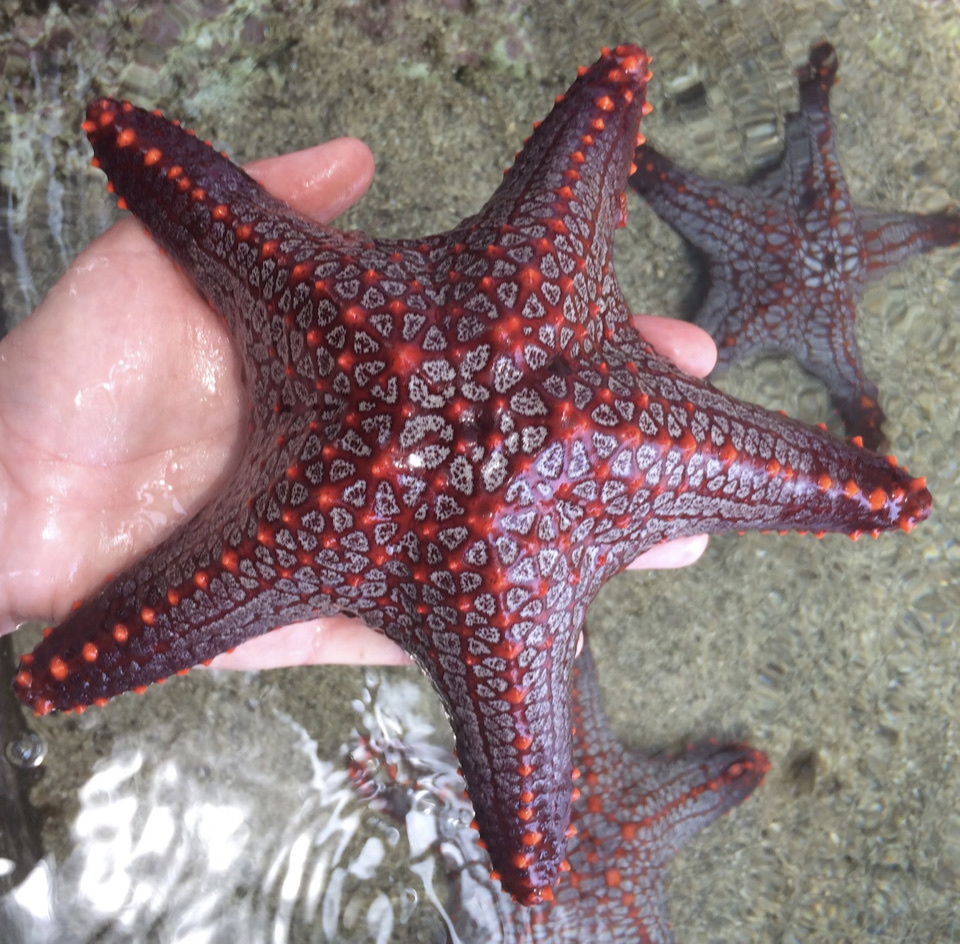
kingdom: Animalia
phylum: Echinodermata
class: Asteroidea
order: Valvatida
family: Oreasteridae
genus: Pentaceraster
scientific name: Pentaceraster cumingi
